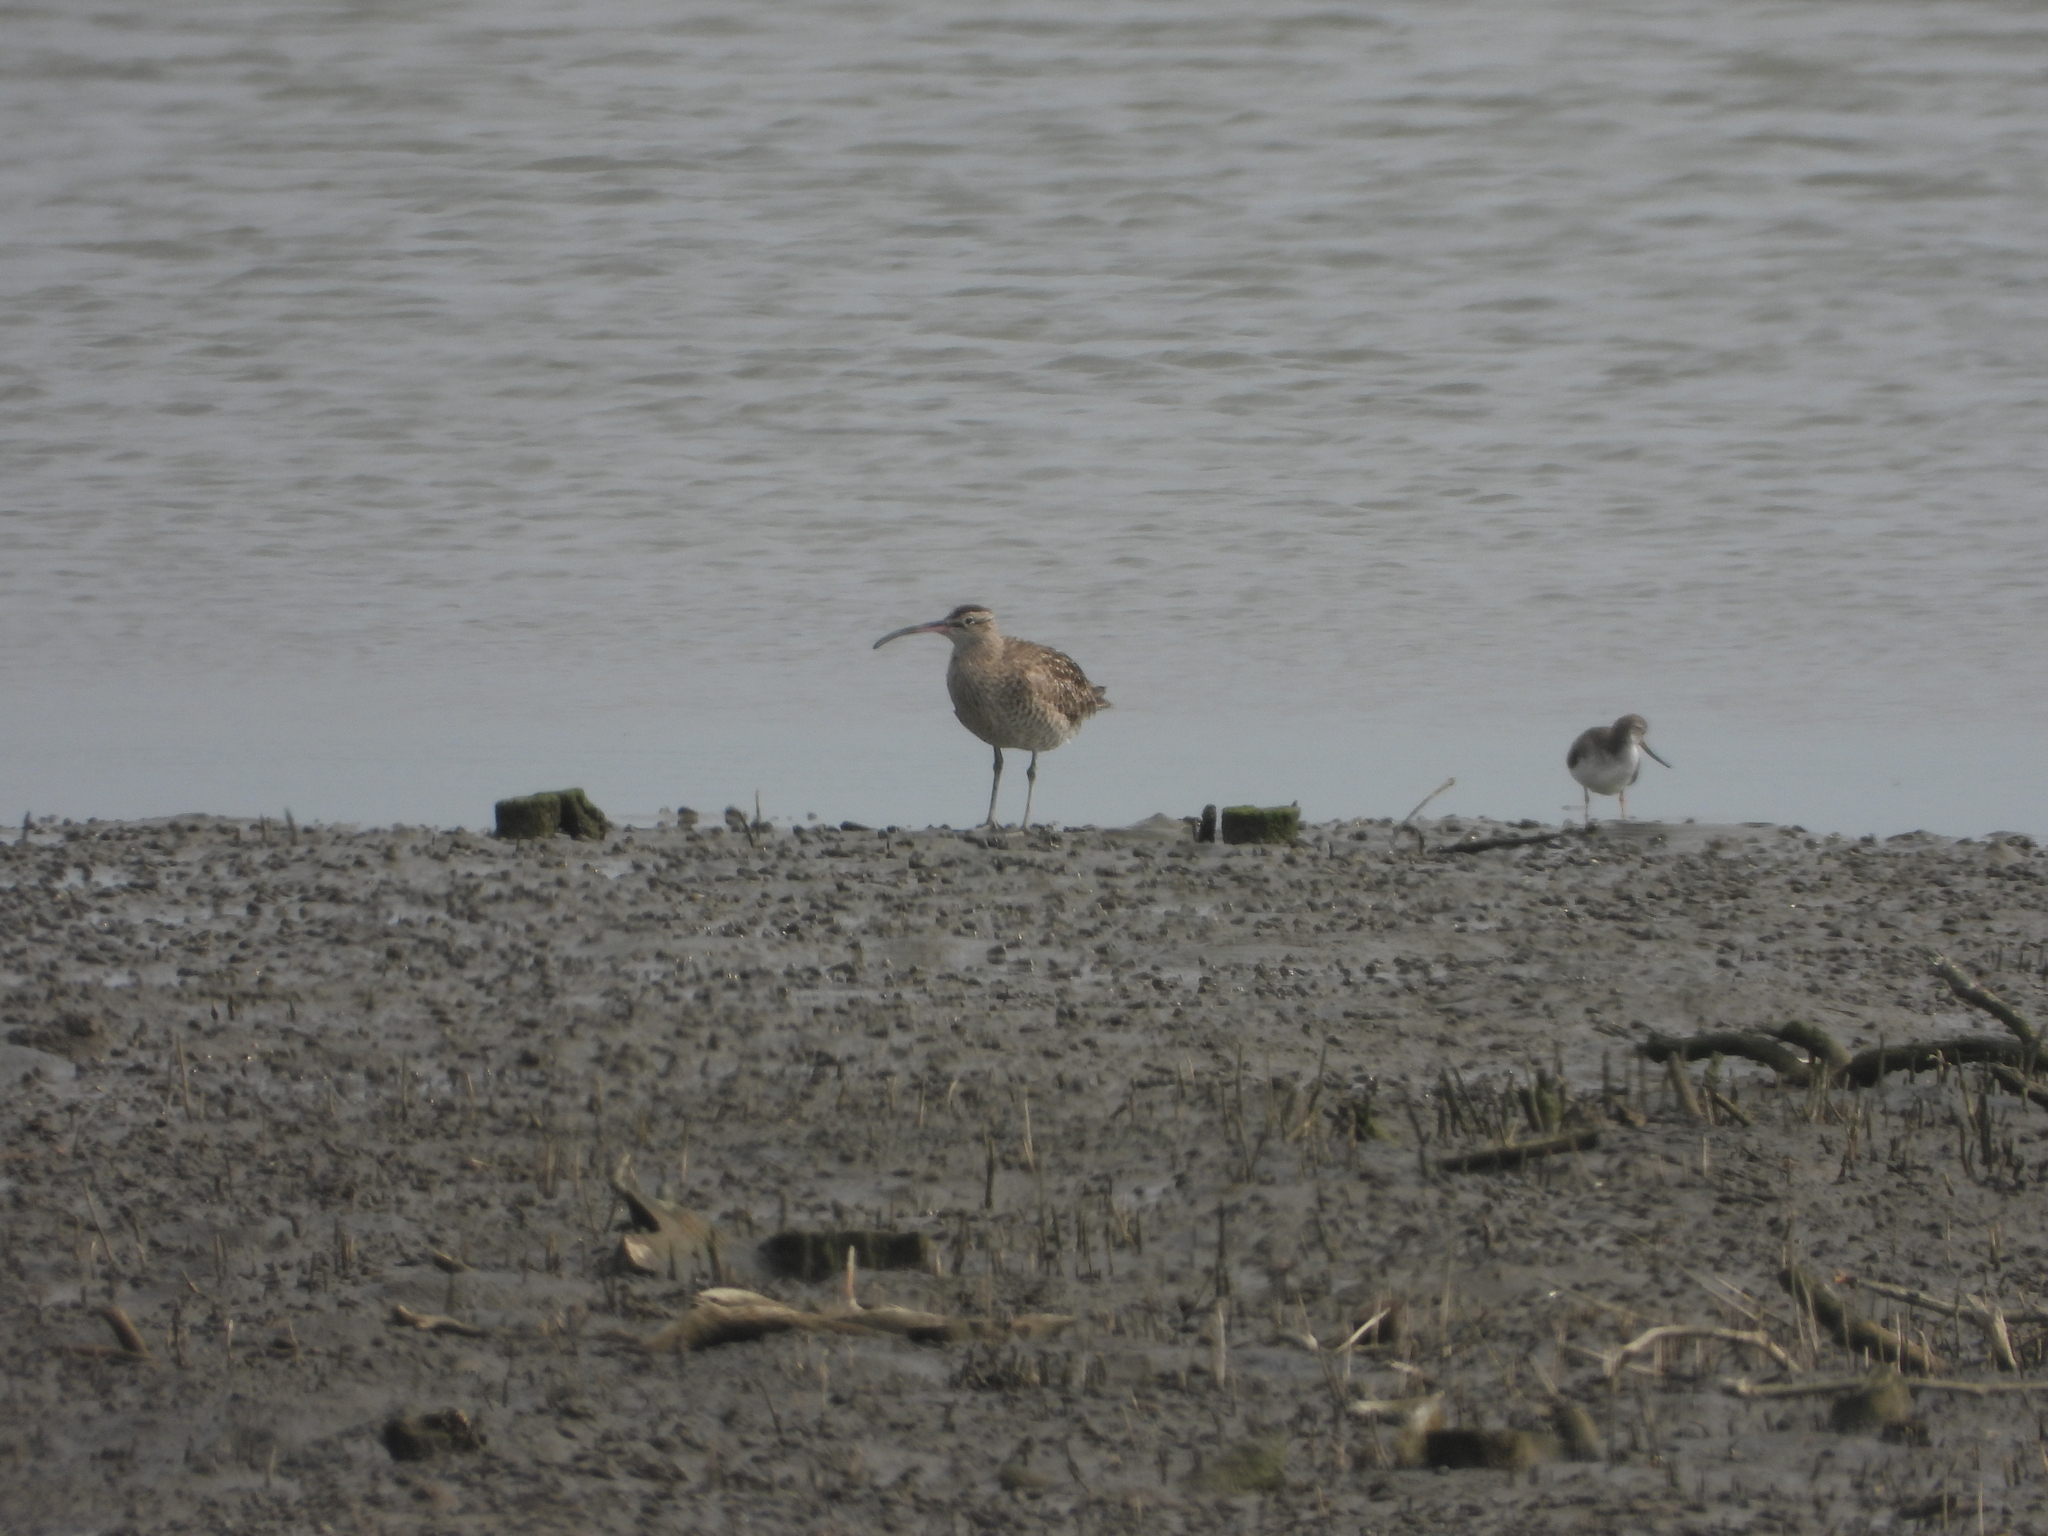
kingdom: Animalia
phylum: Chordata
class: Aves
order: Charadriiformes
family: Scolopacidae
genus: Numenius
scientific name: Numenius phaeopus
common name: Whimbrel
